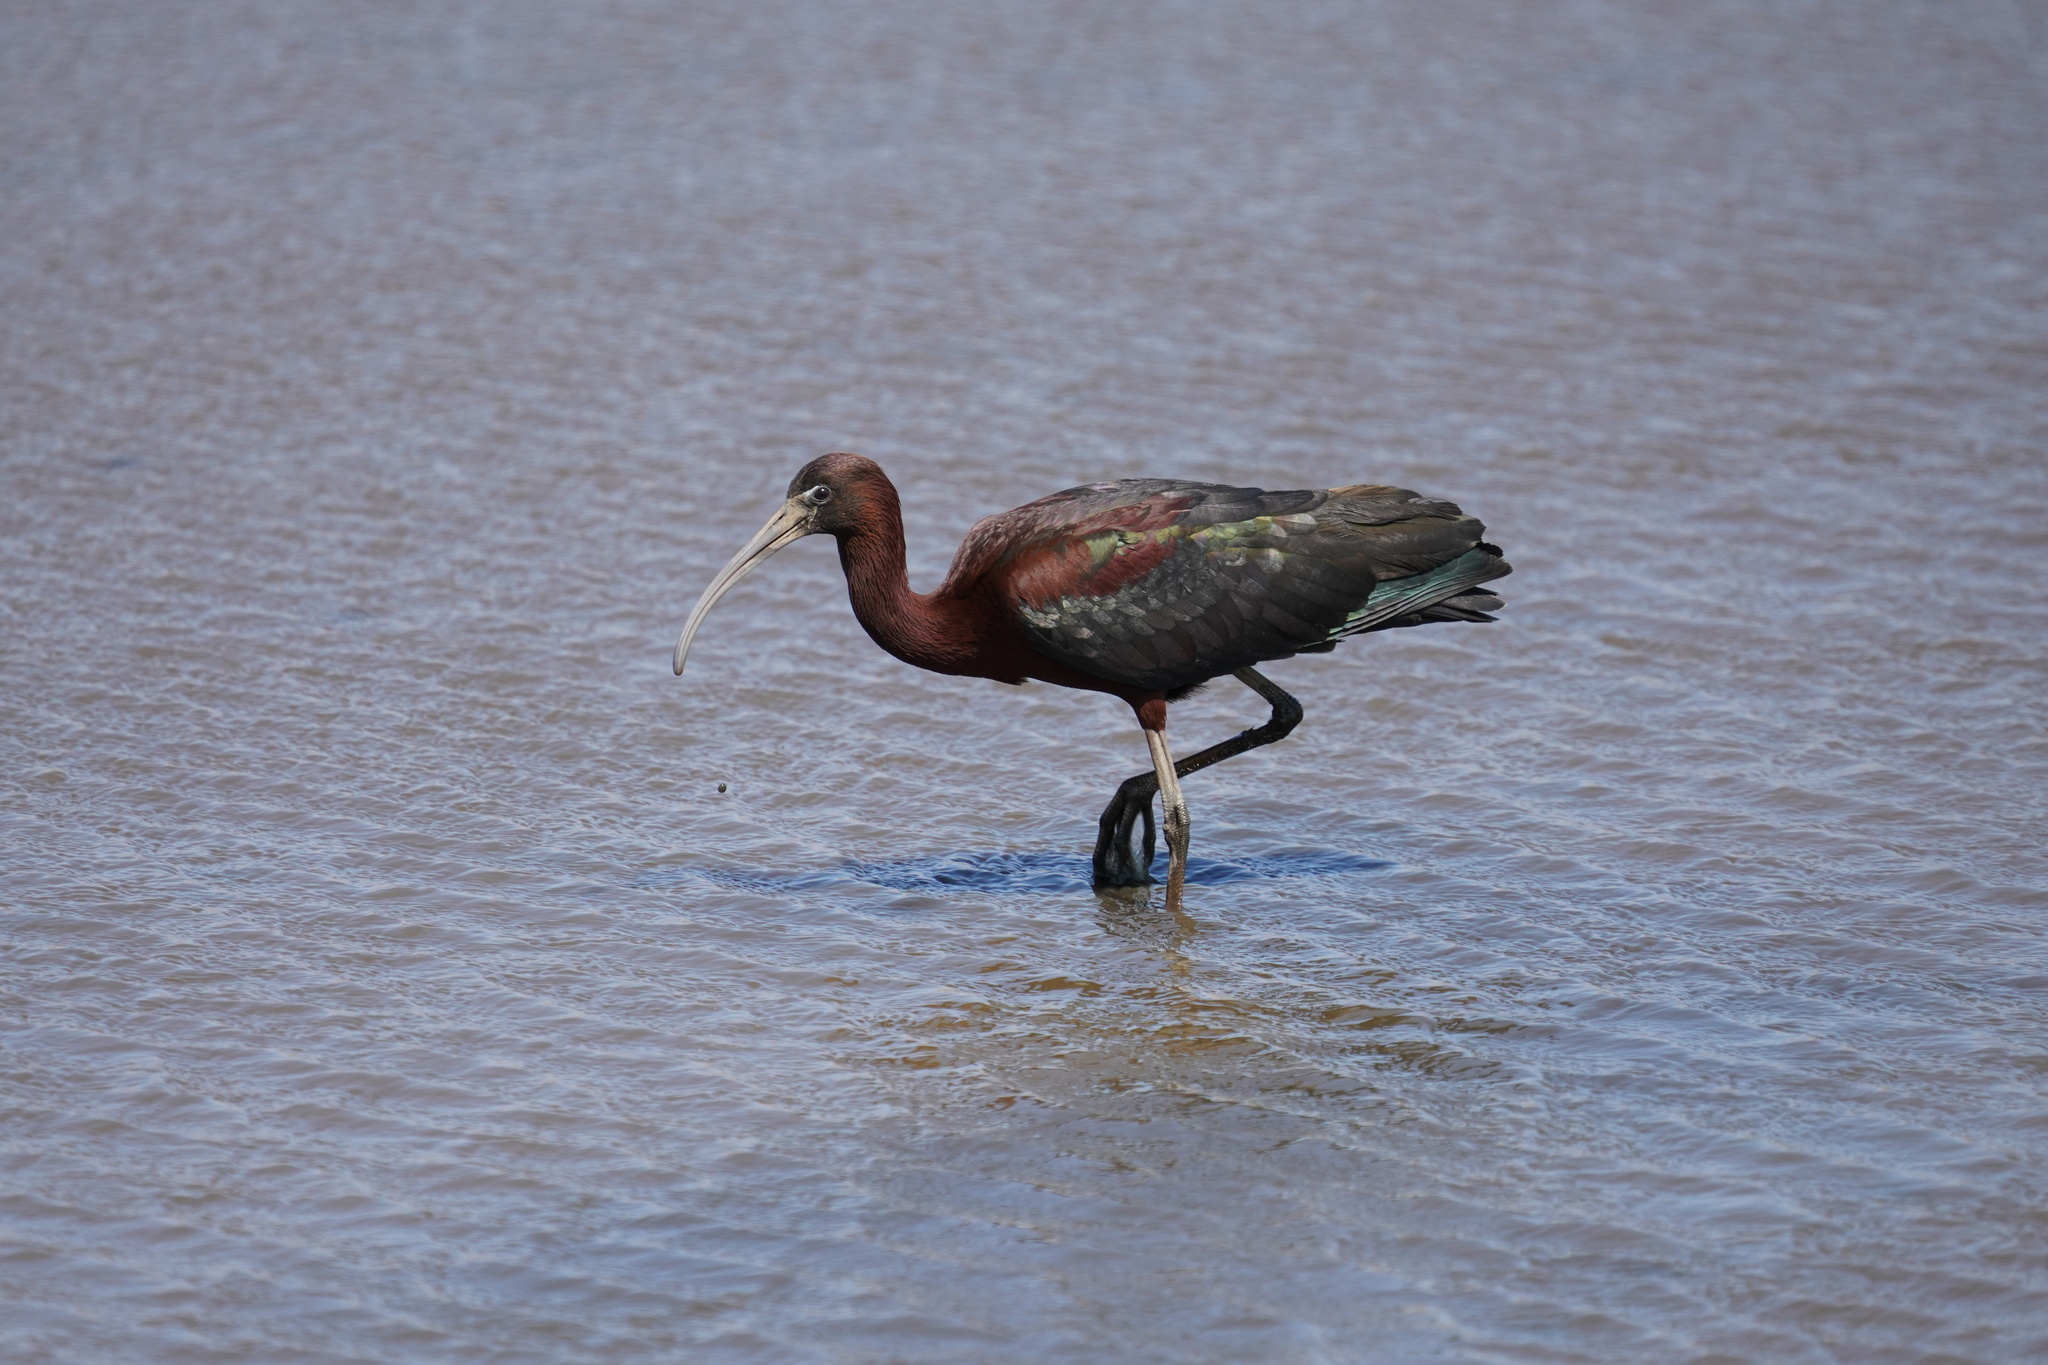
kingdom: Animalia
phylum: Chordata
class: Aves
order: Pelecaniformes
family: Threskiornithidae
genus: Plegadis
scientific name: Plegadis falcinellus
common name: Glossy ibis
